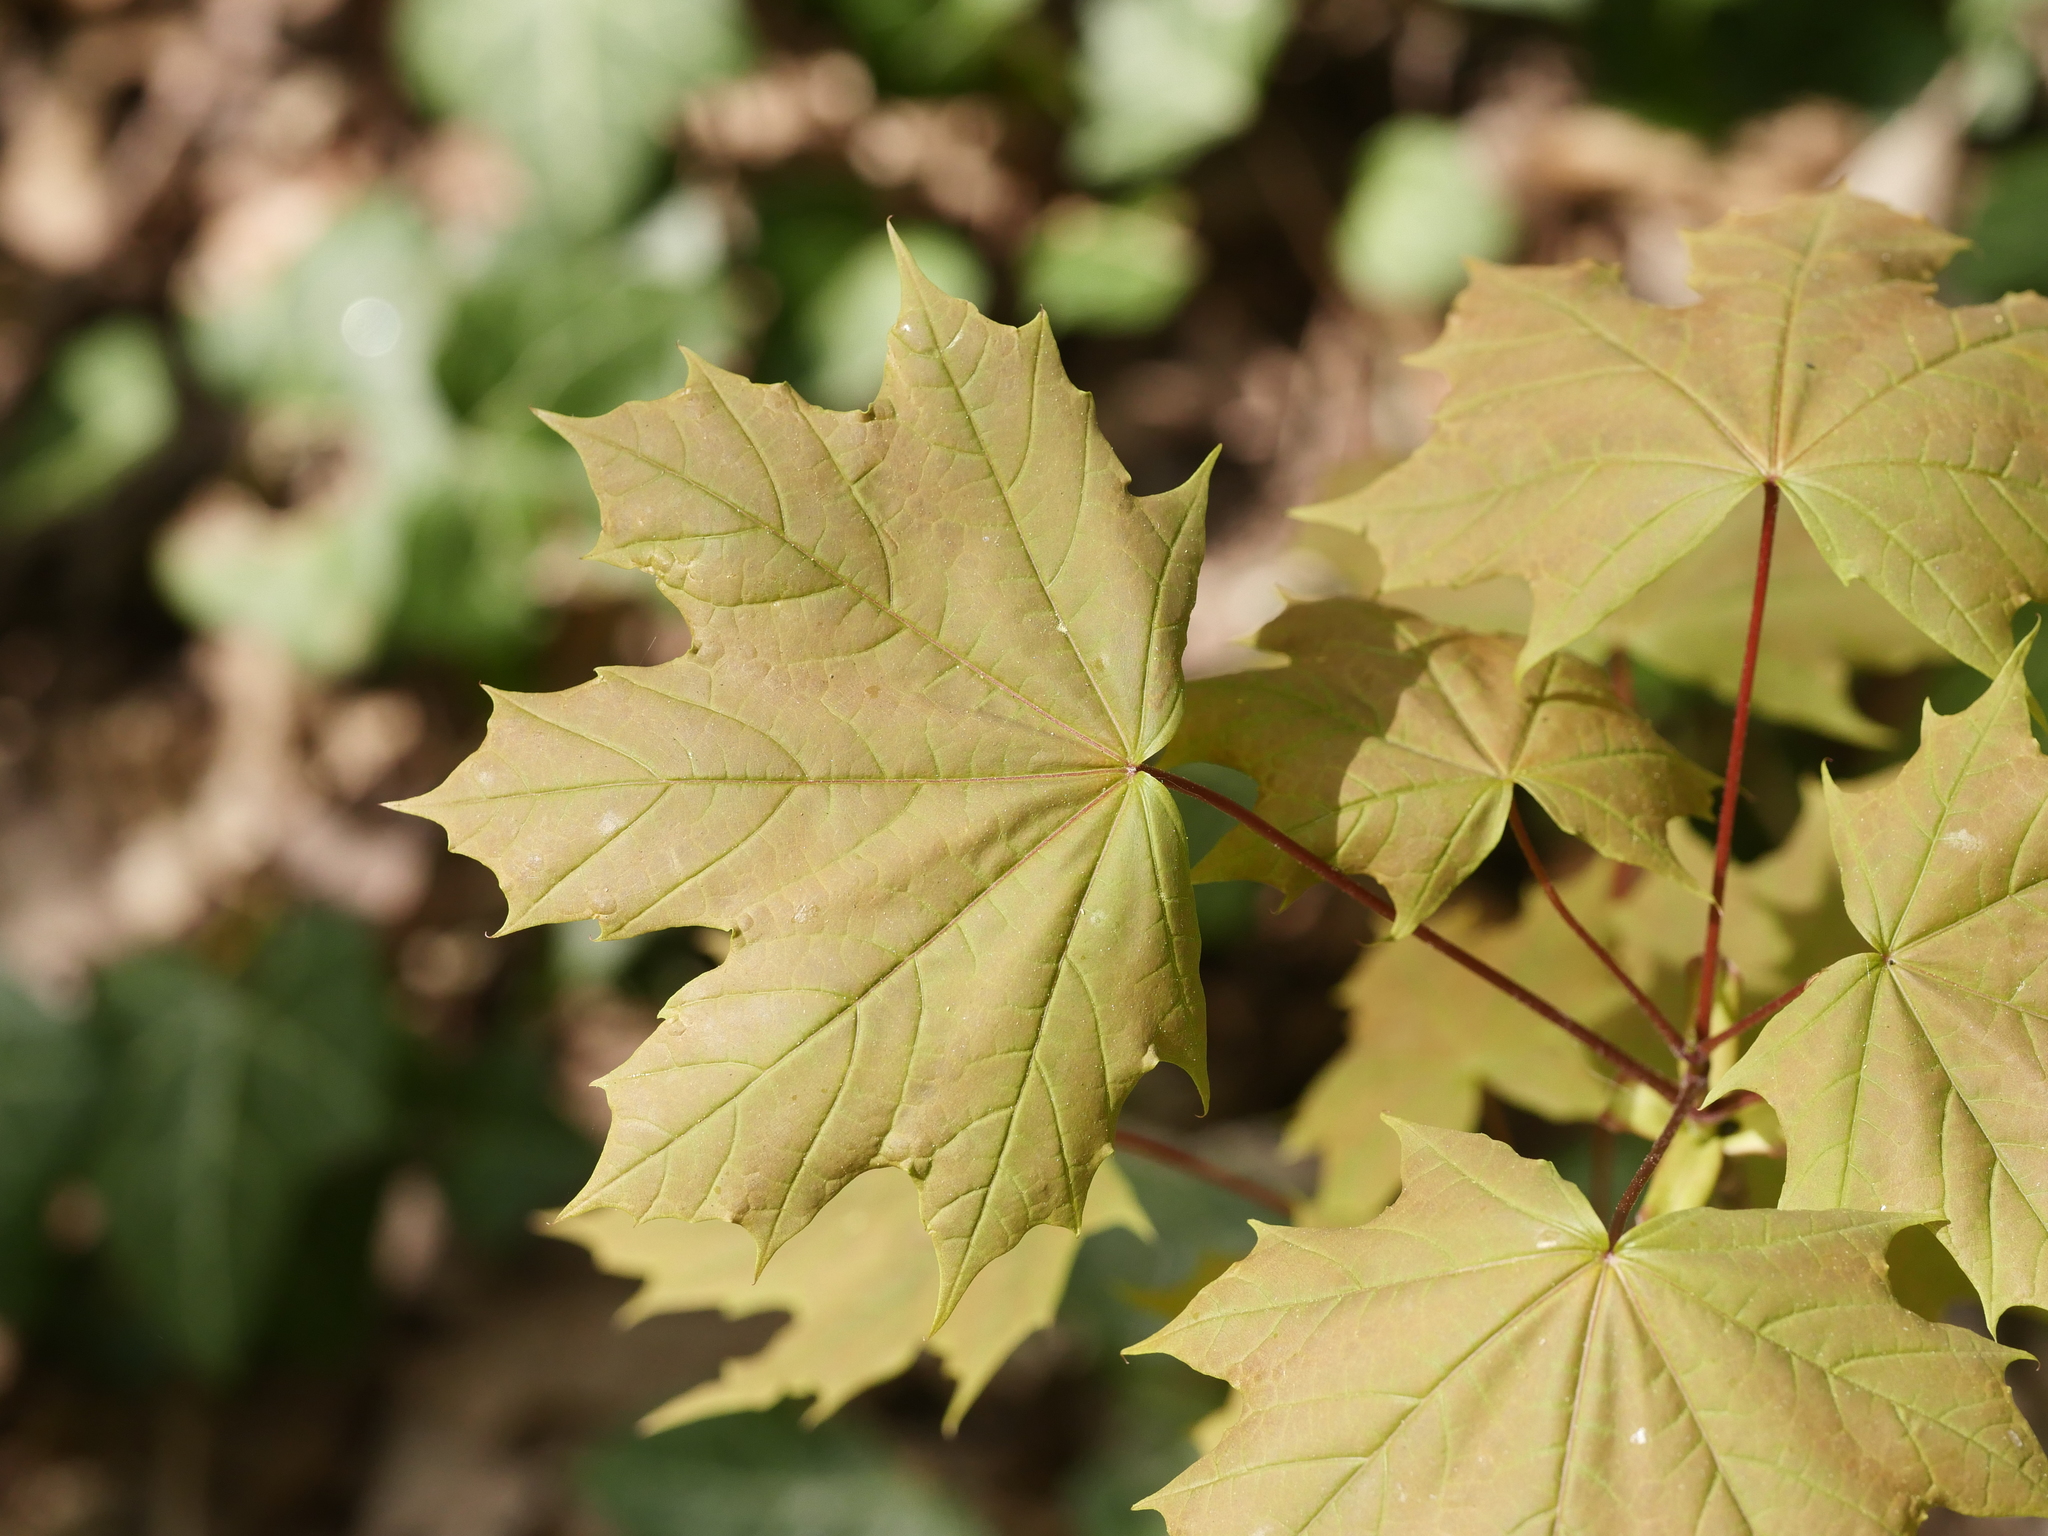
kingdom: Plantae
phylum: Tracheophyta
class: Magnoliopsida
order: Sapindales
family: Sapindaceae
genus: Acer
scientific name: Acer platanoides
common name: Norway maple
